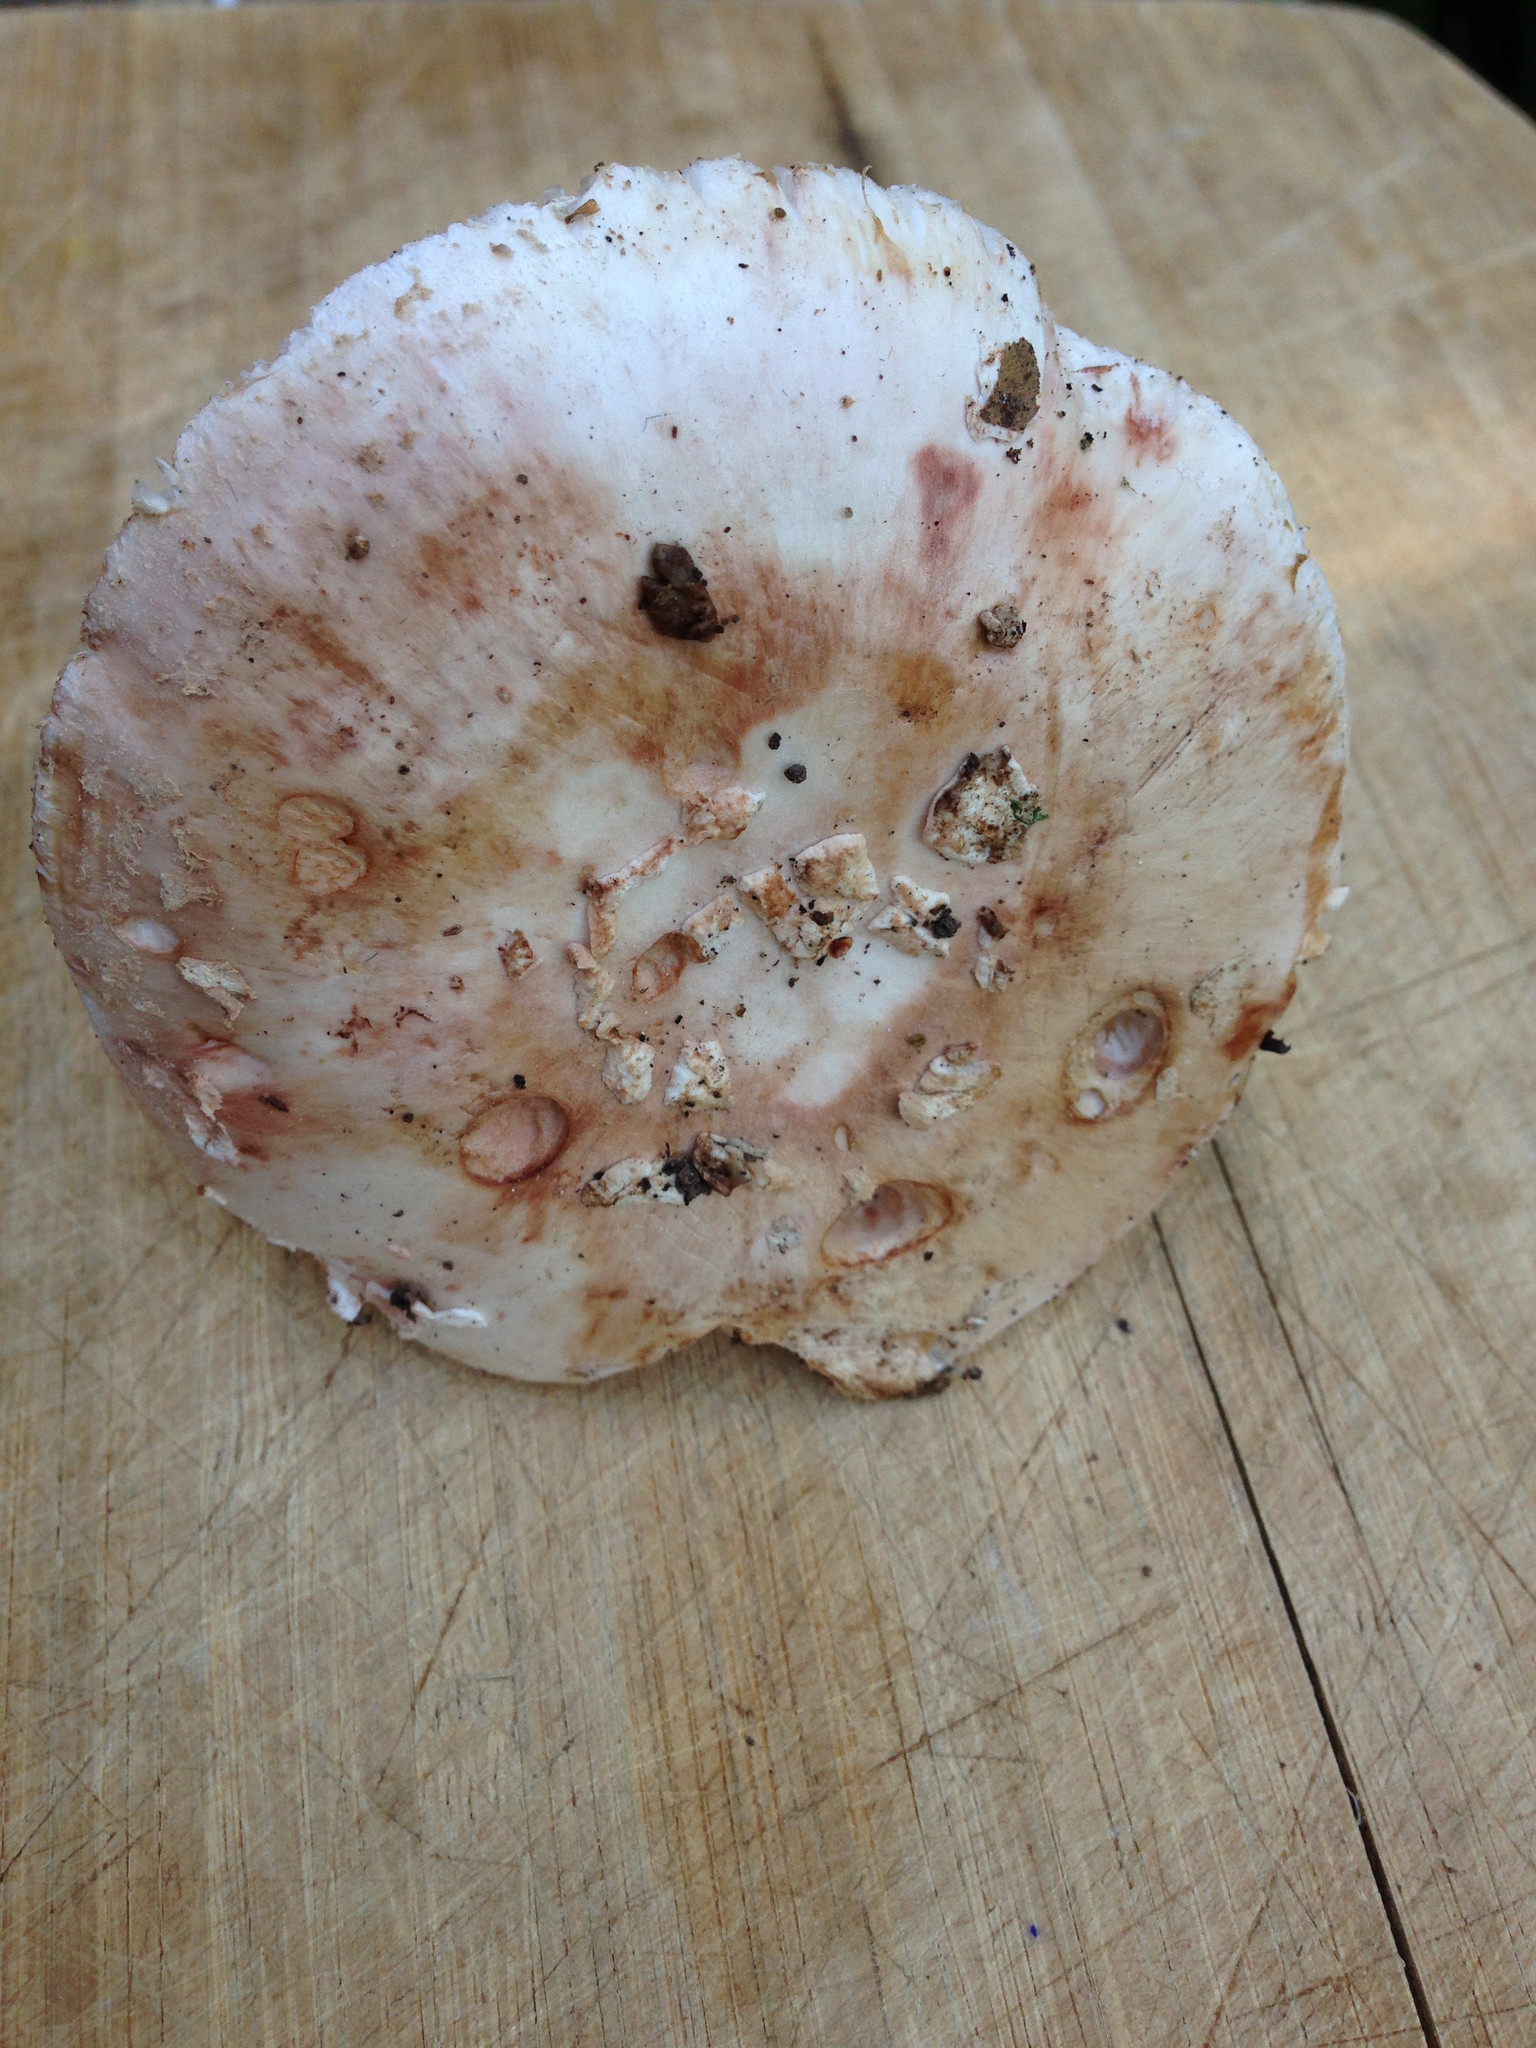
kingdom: Fungi
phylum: Basidiomycota
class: Agaricomycetes
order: Agaricales
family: Amanitaceae
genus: Amanita
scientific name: Amanita novinupta
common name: Blushing bride
